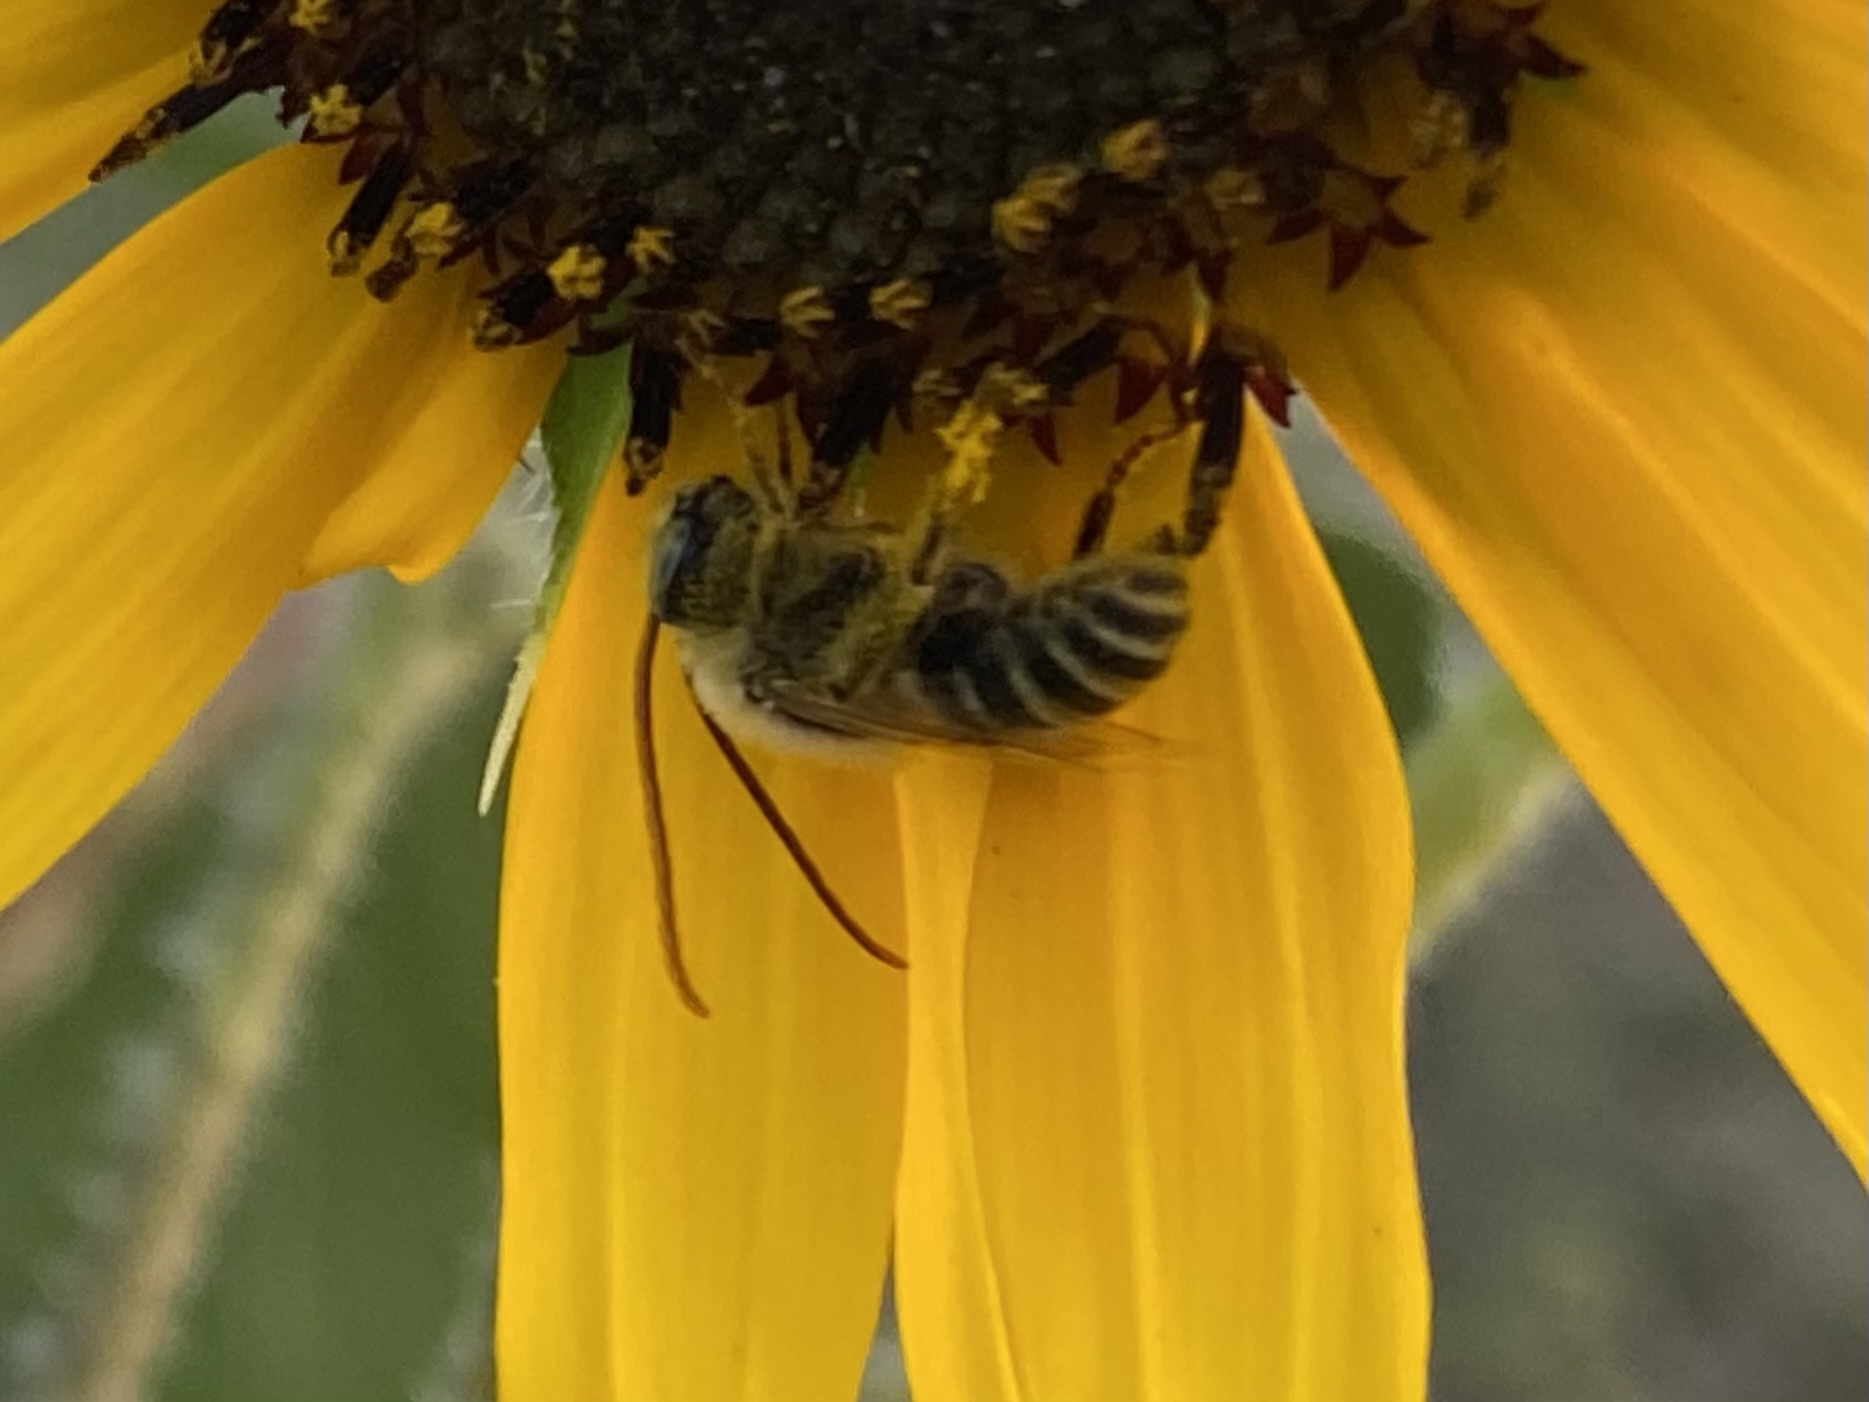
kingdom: Animalia
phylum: Arthropoda
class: Insecta
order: Hymenoptera
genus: Eumelissodes
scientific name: Eumelissodes
